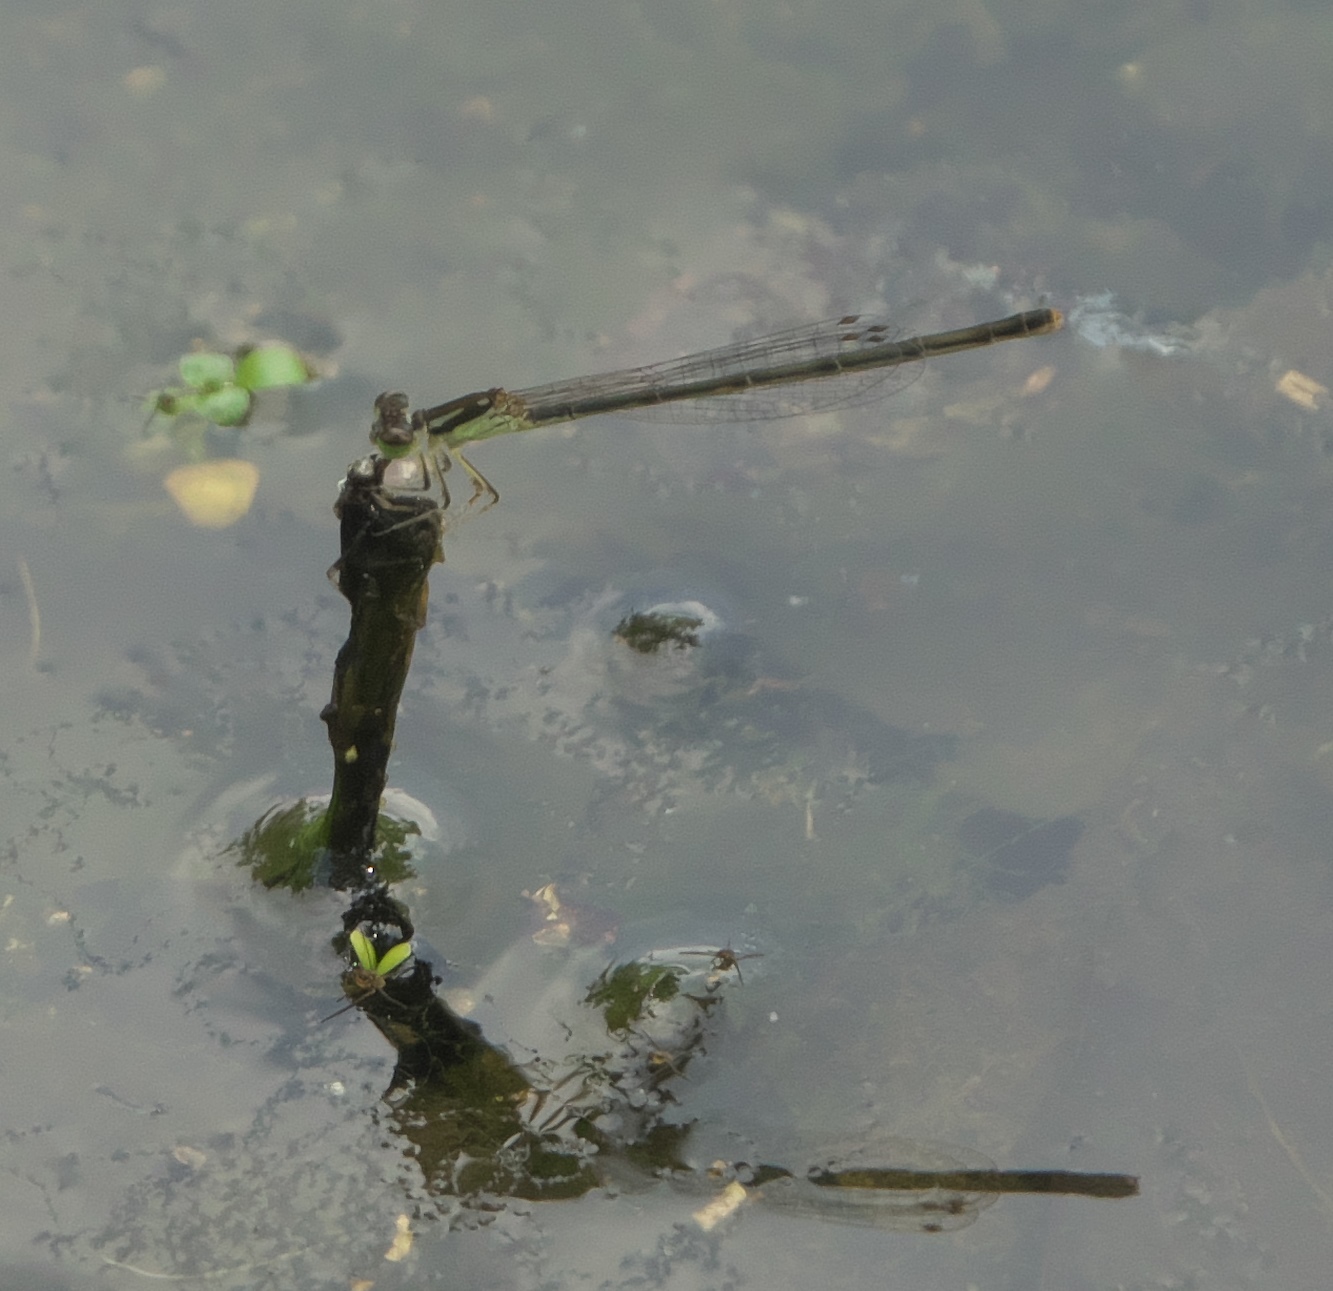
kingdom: Animalia
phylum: Arthropoda
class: Insecta
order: Odonata
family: Coenagrionidae
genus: Ischnura
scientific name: Ischnura posita
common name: Fragile forktail
